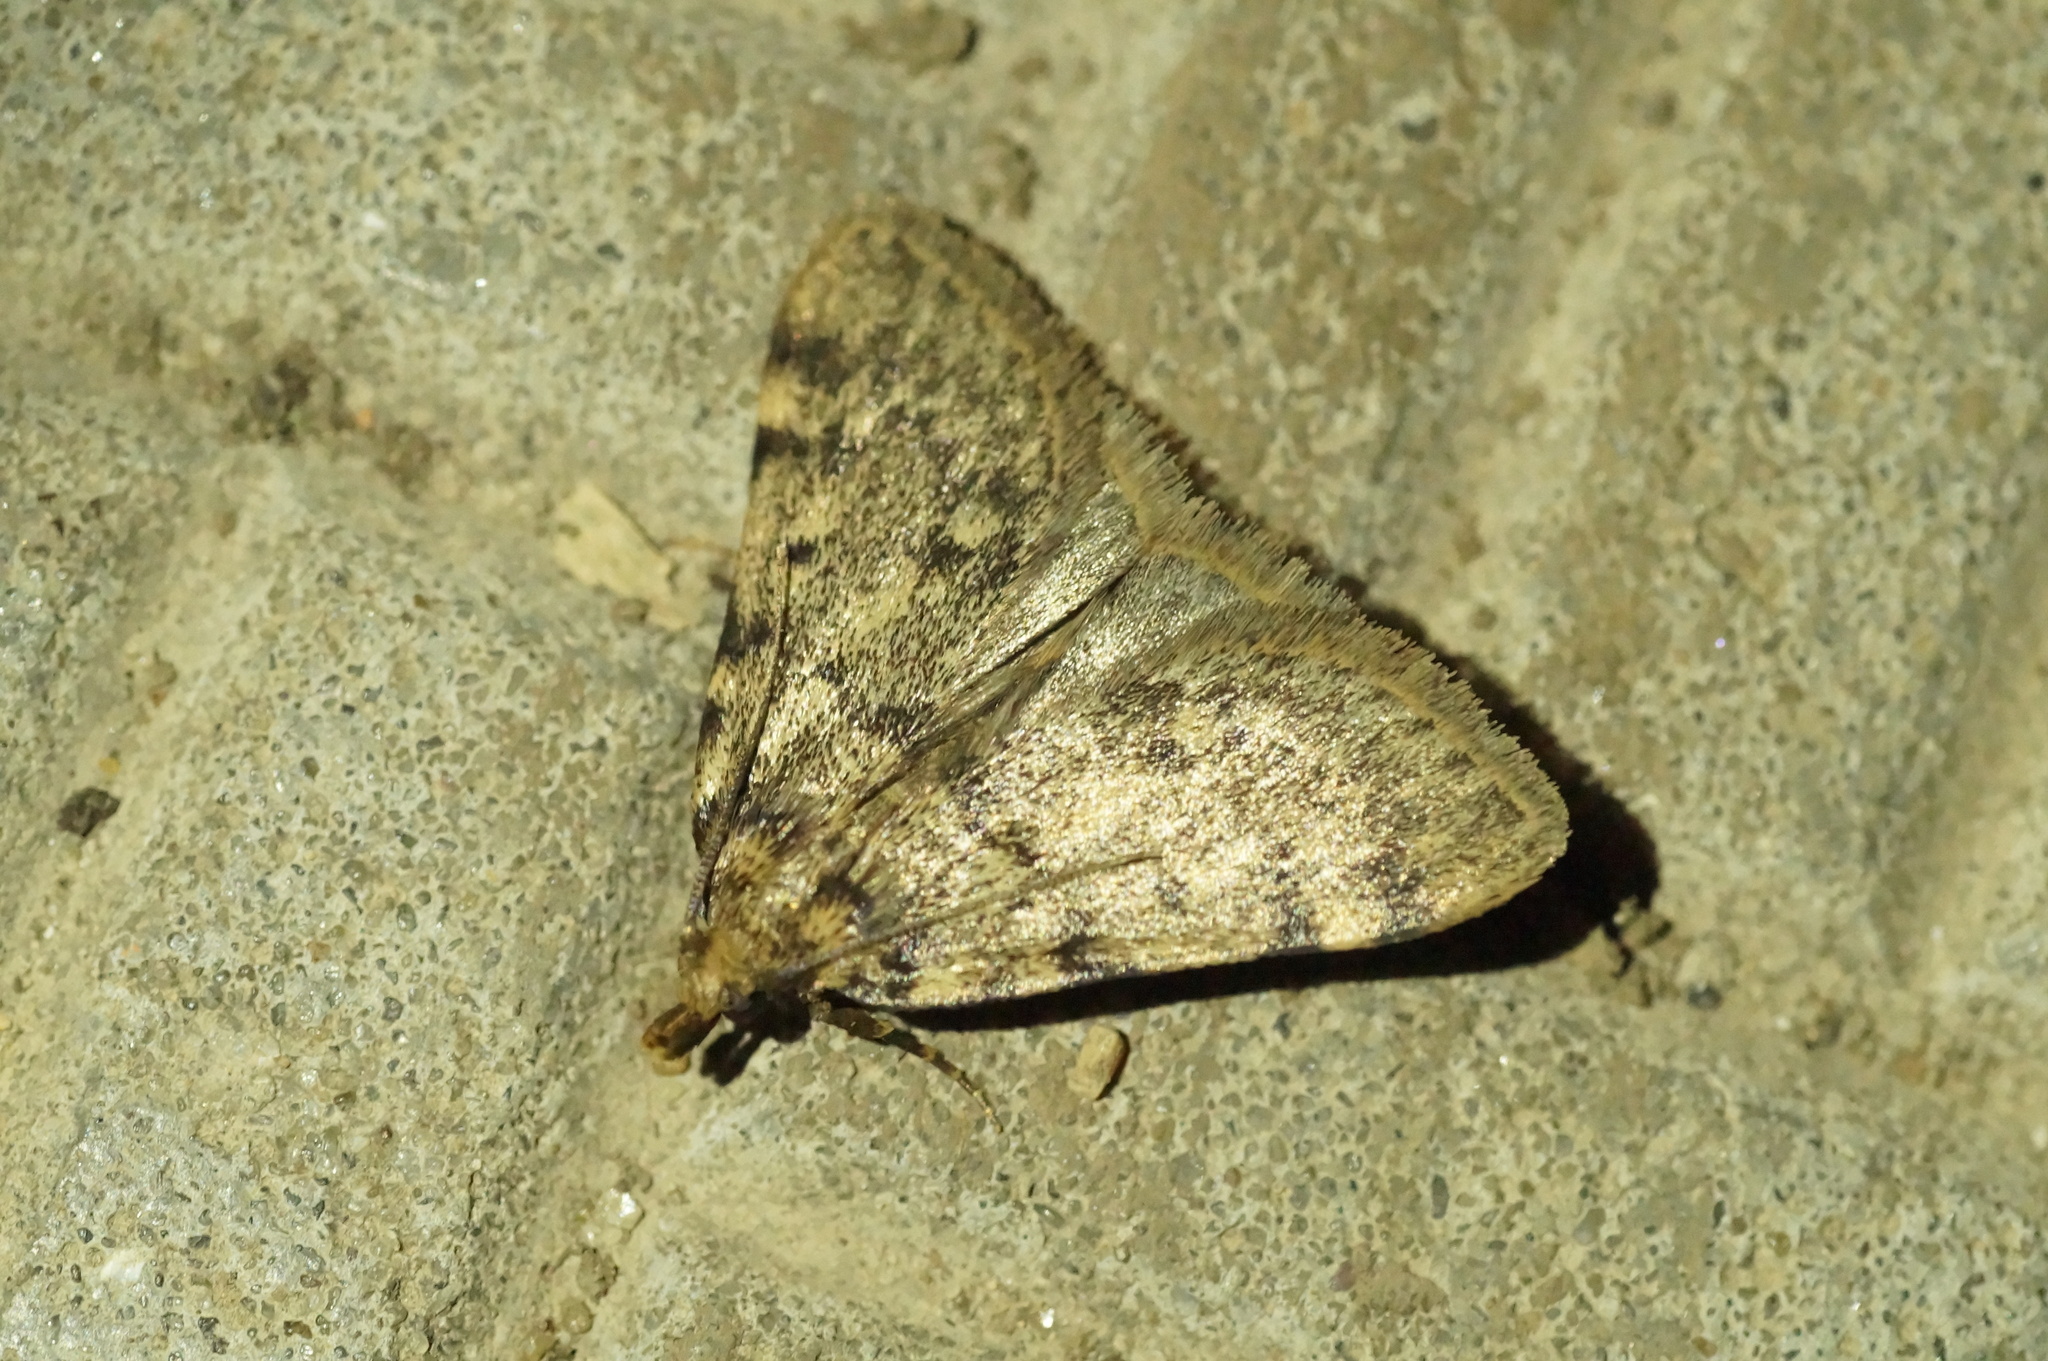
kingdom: Animalia
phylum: Arthropoda
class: Insecta
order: Lepidoptera
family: Pyralidae
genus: Aglossa
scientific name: Aglossa pinguinalis
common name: Large tabby
